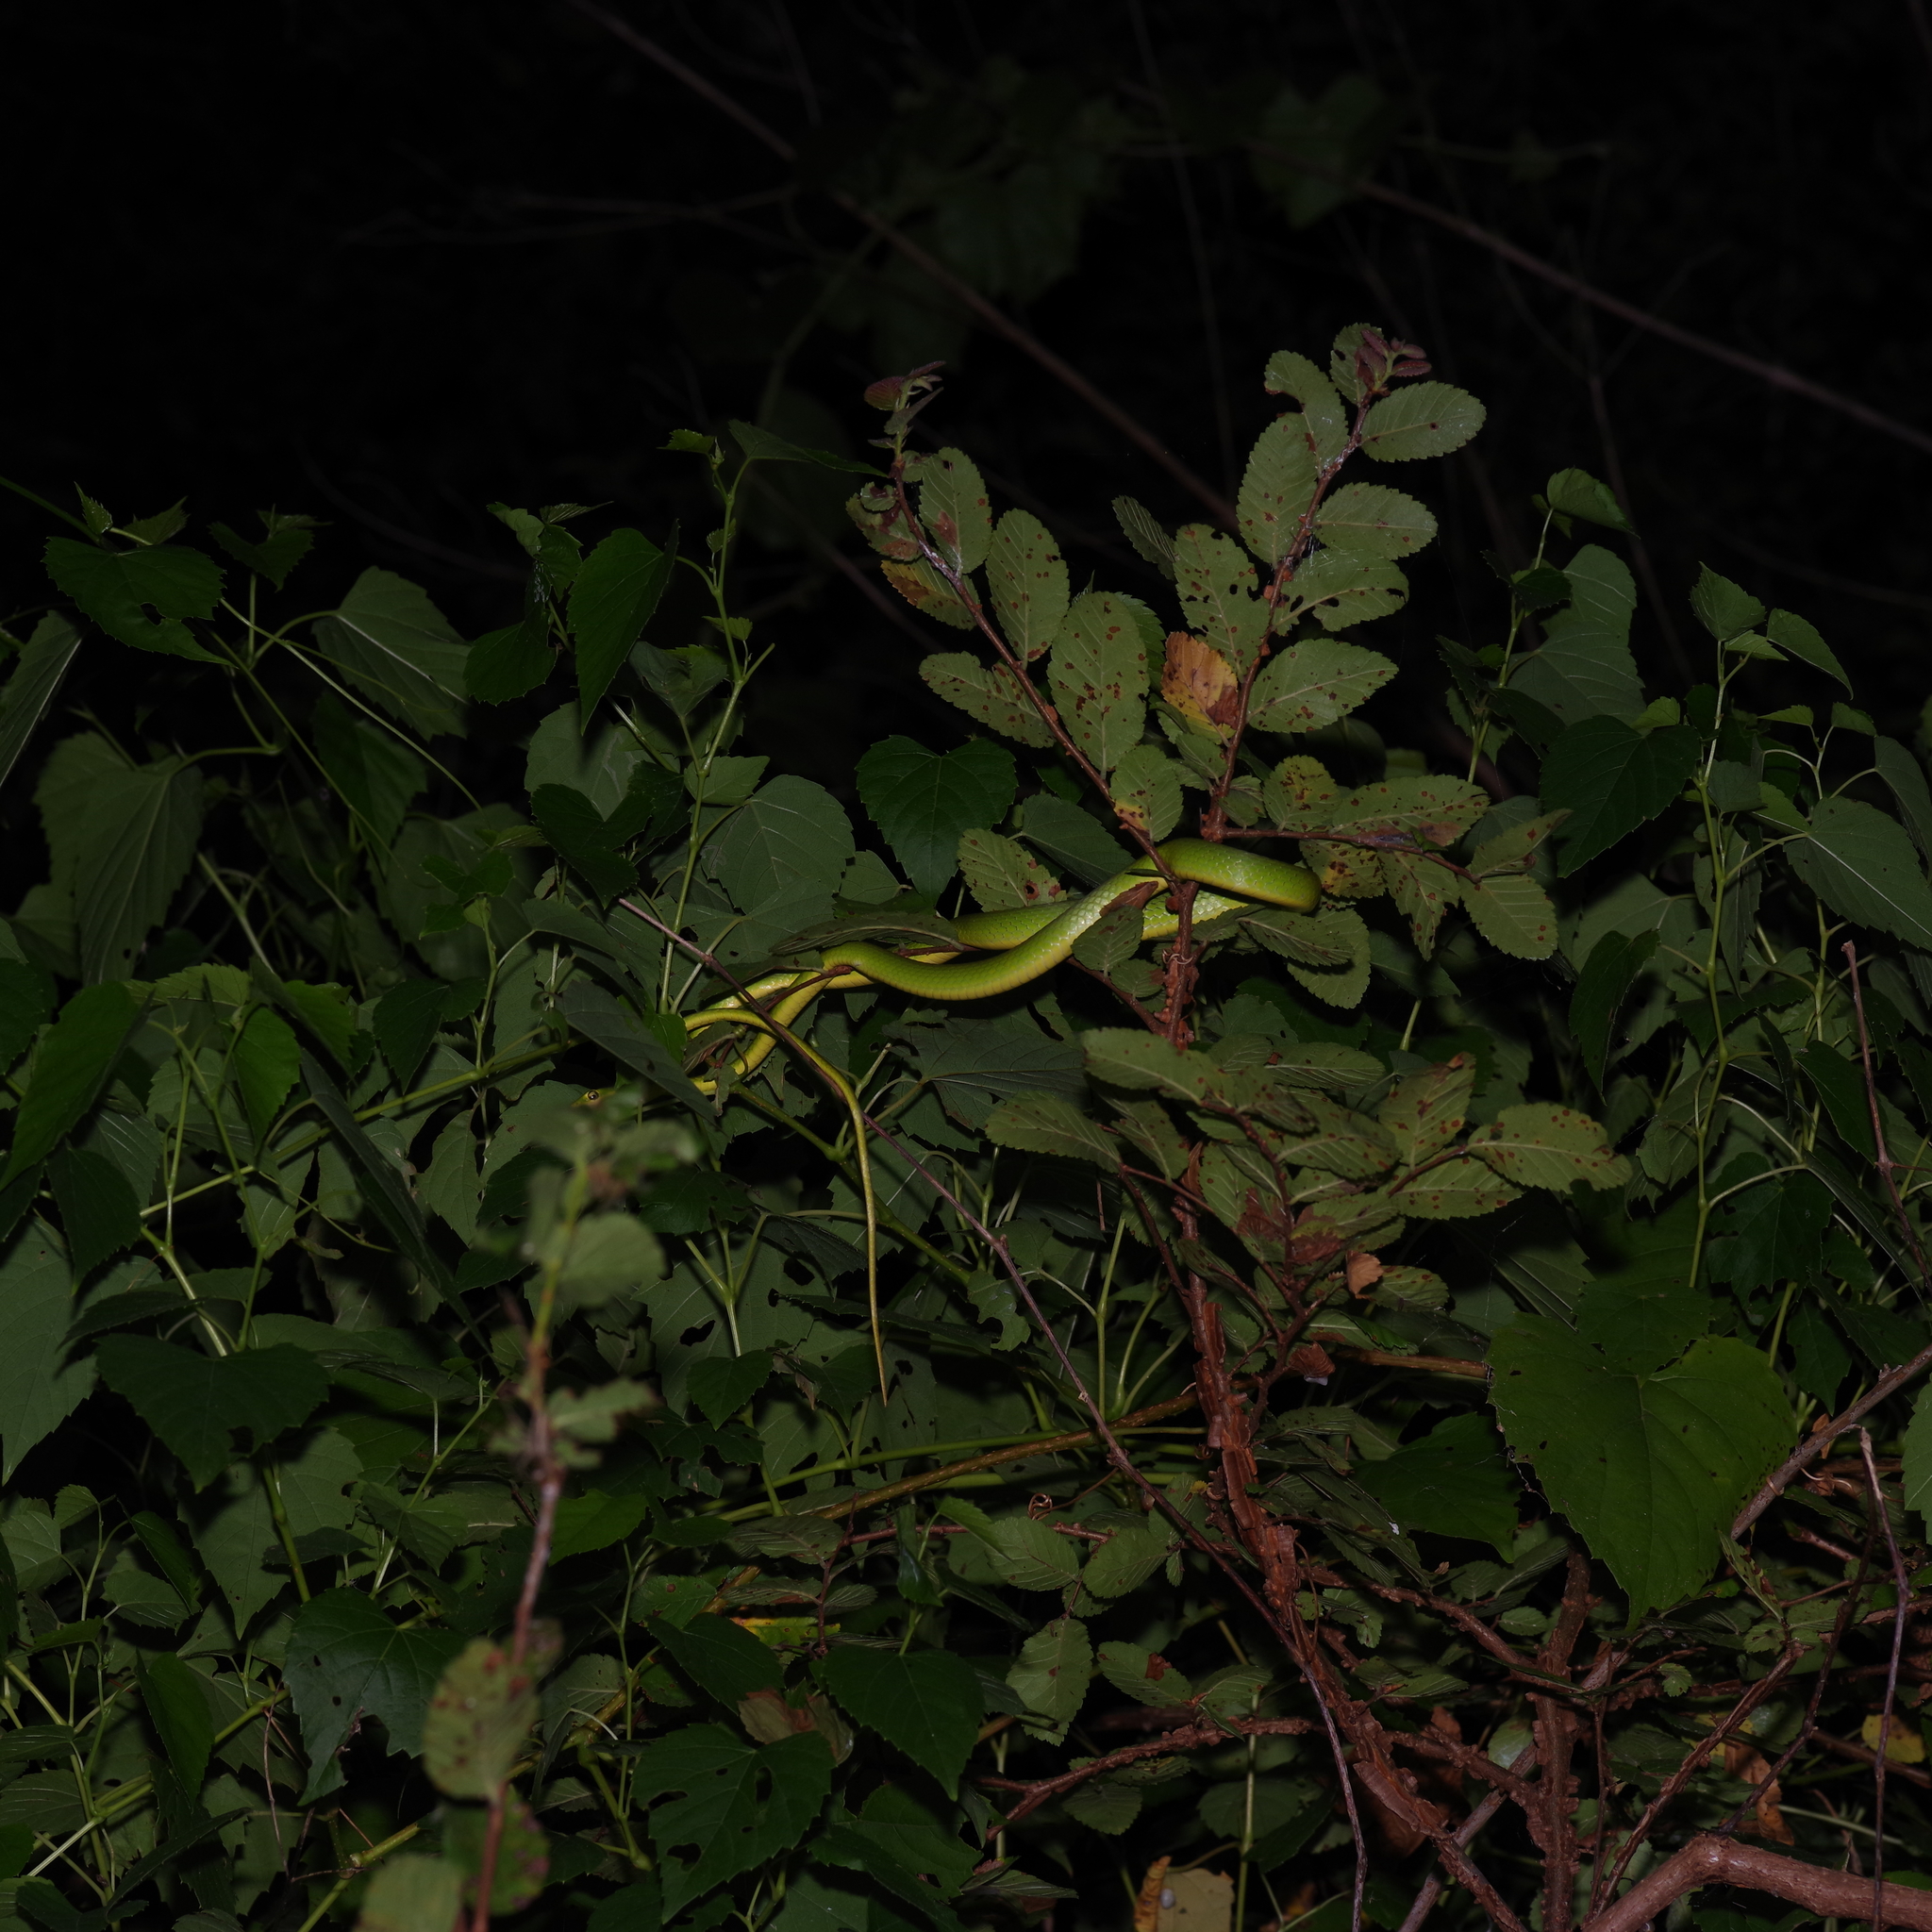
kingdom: Animalia
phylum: Chordata
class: Squamata
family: Colubridae
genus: Opheodrys
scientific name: Opheodrys aestivus
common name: Rough greensnake
